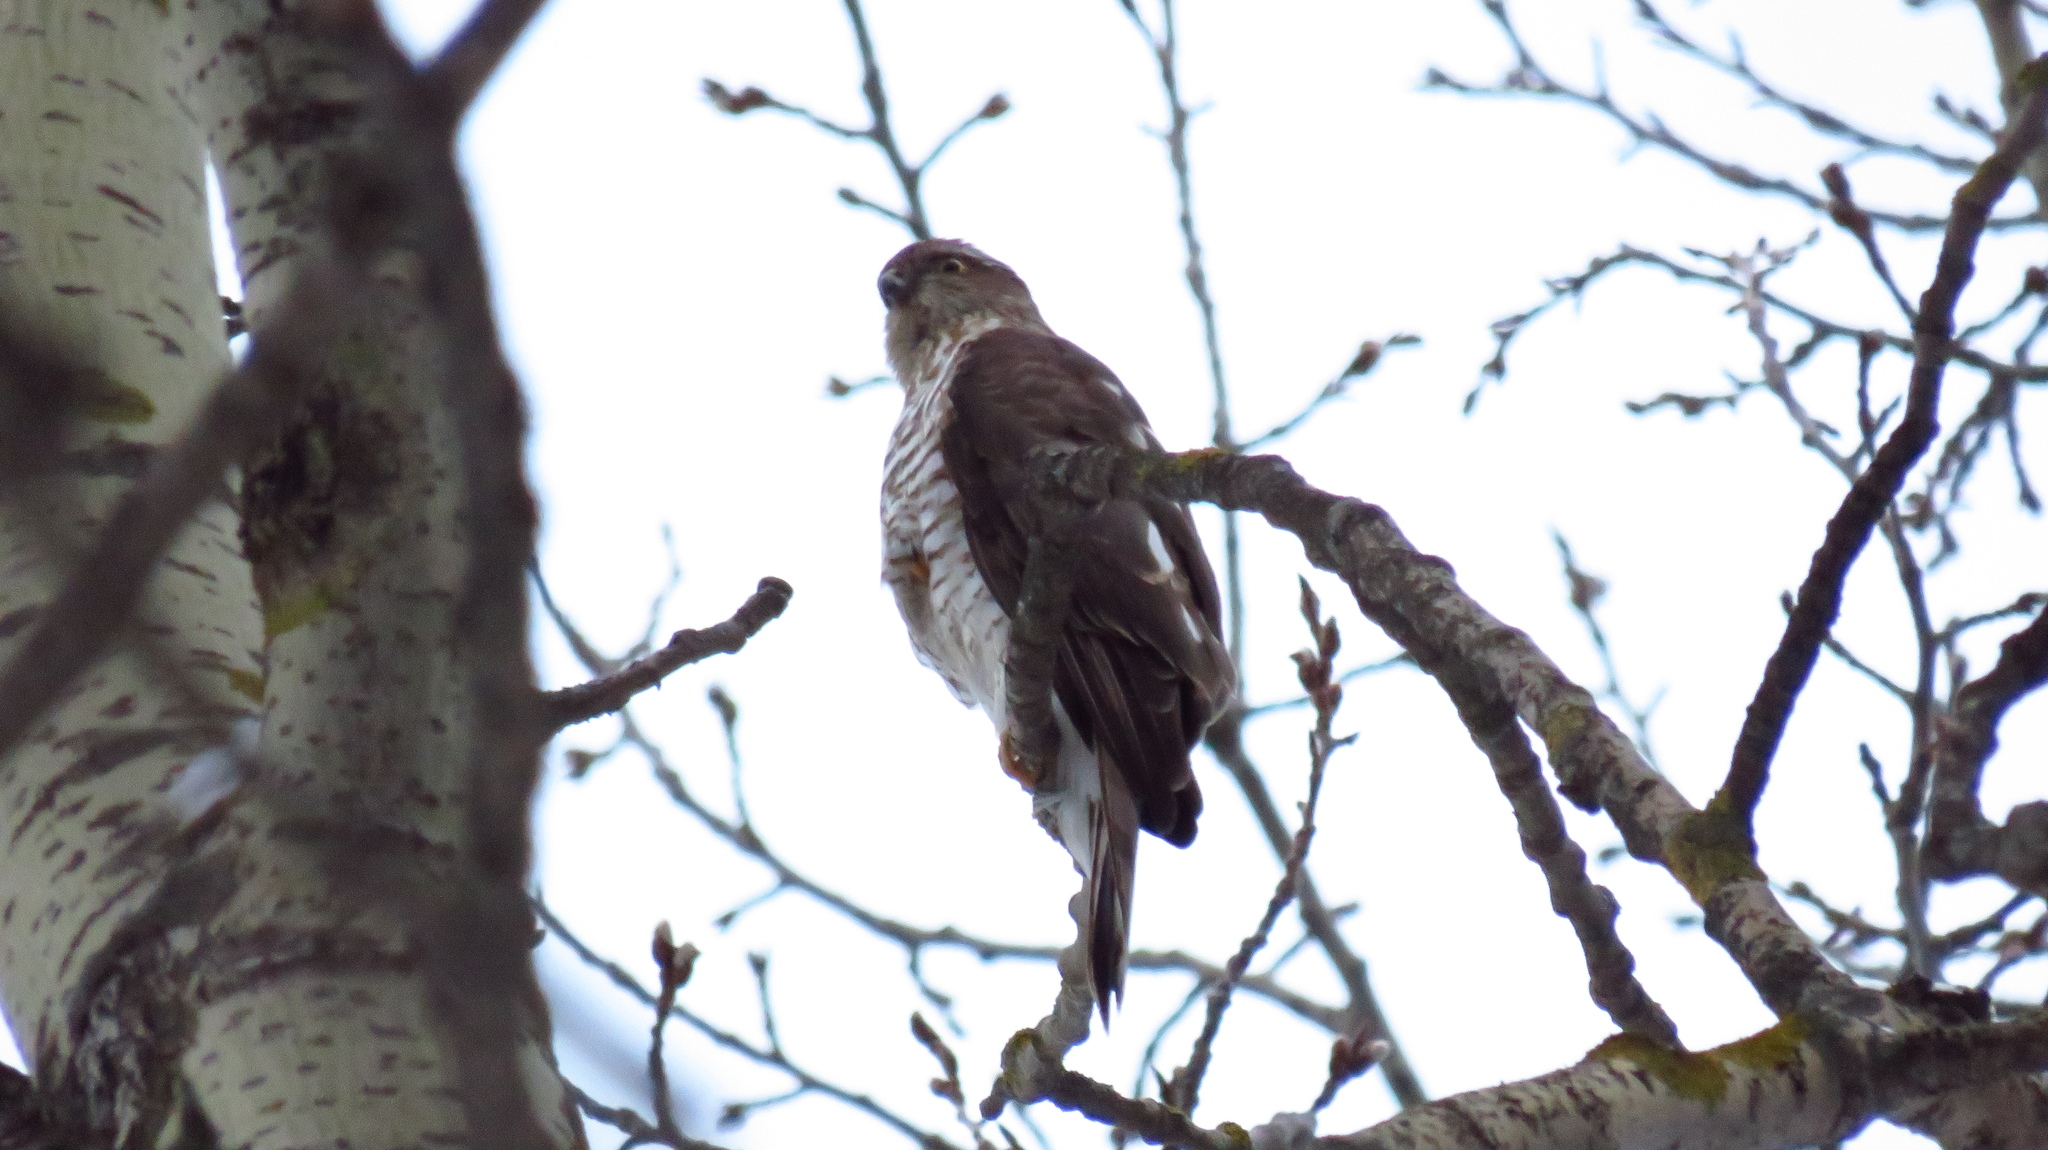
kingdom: Animalia
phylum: Chordata
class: Aves
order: Accipitriformes
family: Accipitridae
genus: Accipiter
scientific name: Accipiter nisus
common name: Eurasian sparrowhawk
